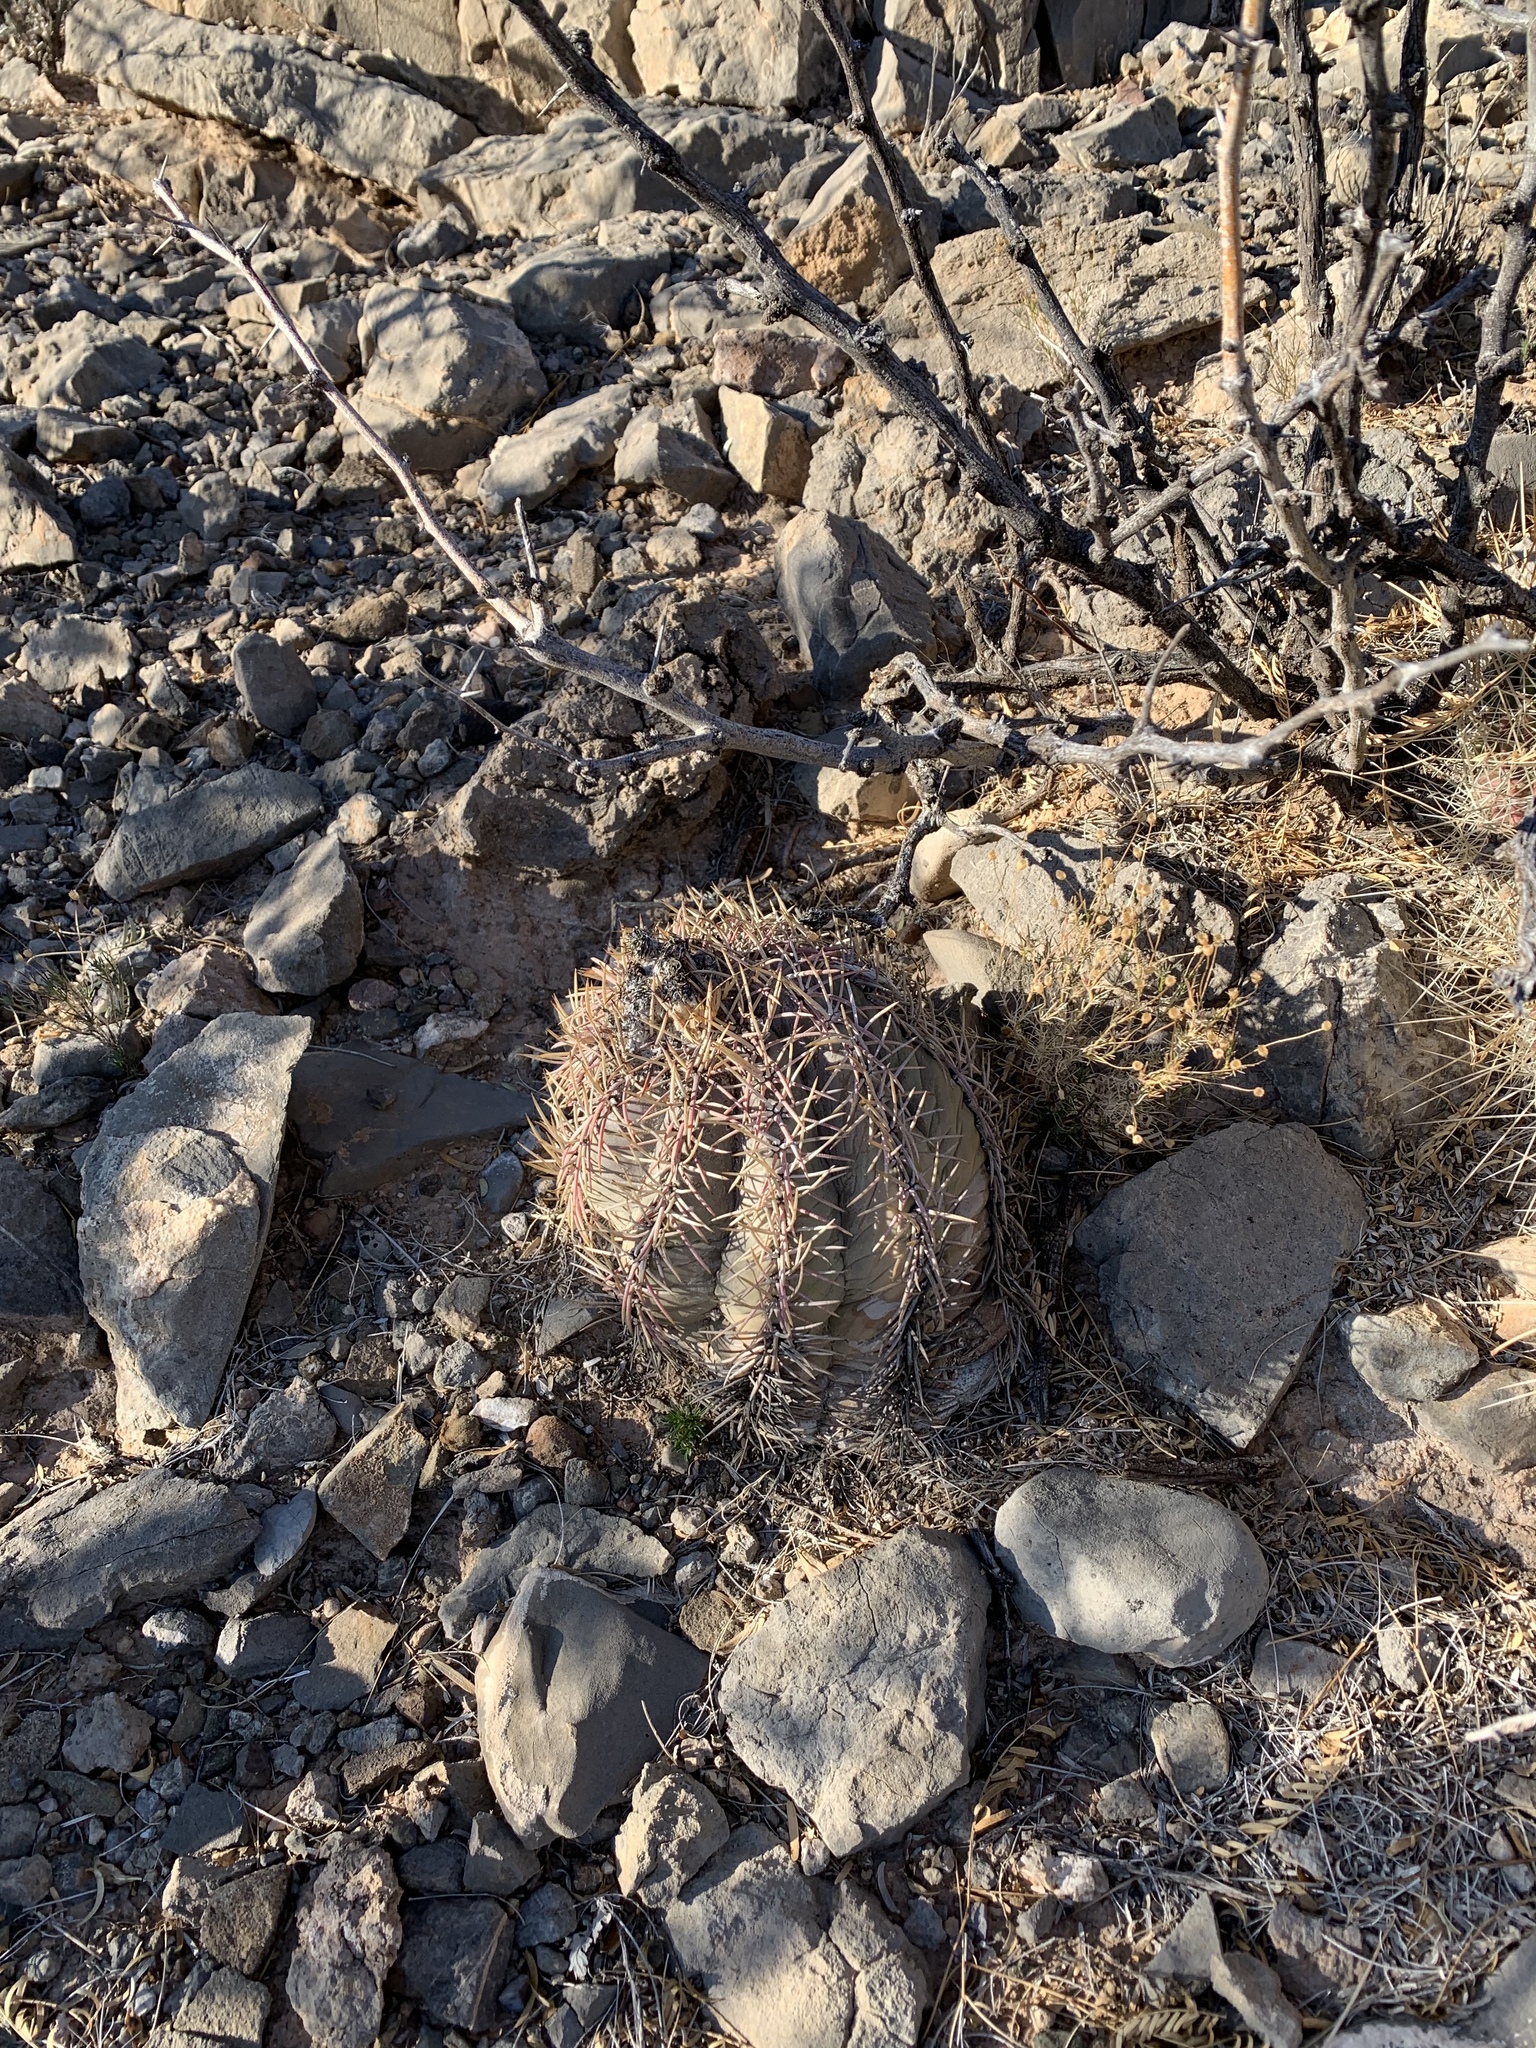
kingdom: Plantae
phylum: Tracheophyta
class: Magnoliopsida
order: Caryophyllales
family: Cactaceae
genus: Echinocactus
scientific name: Echinocactus horizonthalonius
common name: Devilshead
